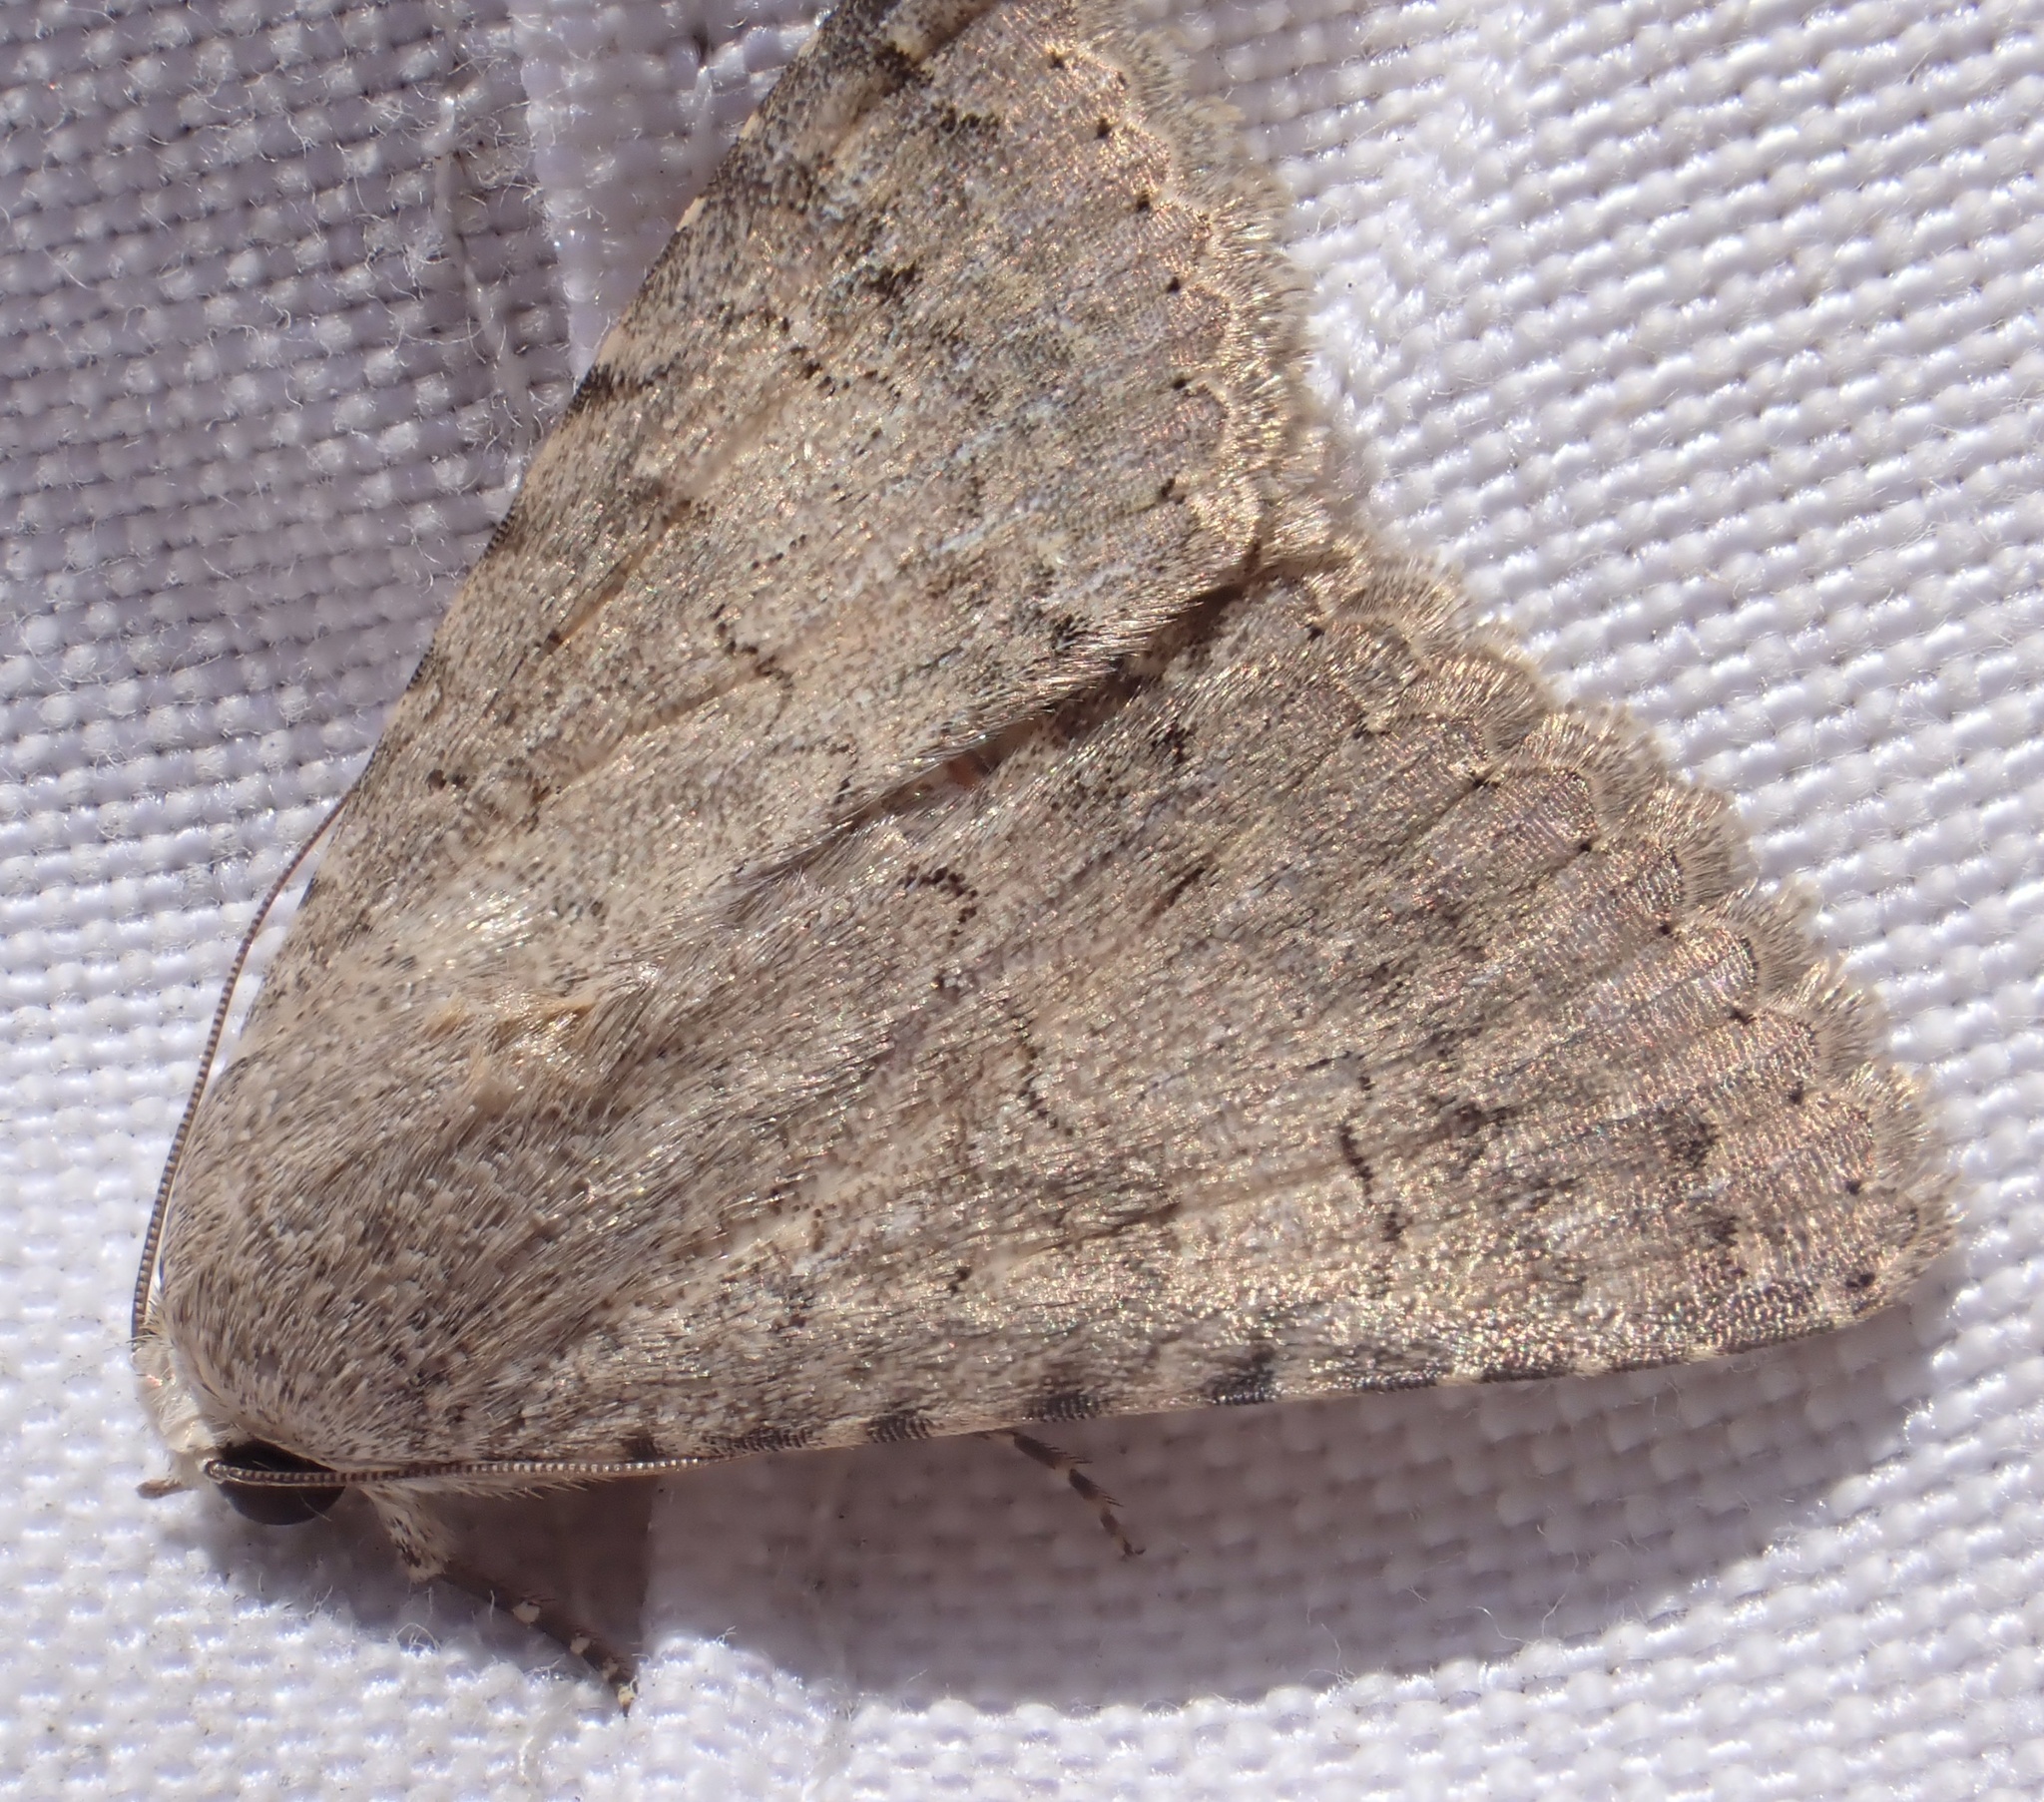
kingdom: Animalia
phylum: Arthropoda
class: Insecta
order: Lepidoptera
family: Erebidae
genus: Pandesma
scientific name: Pandesma robusta
